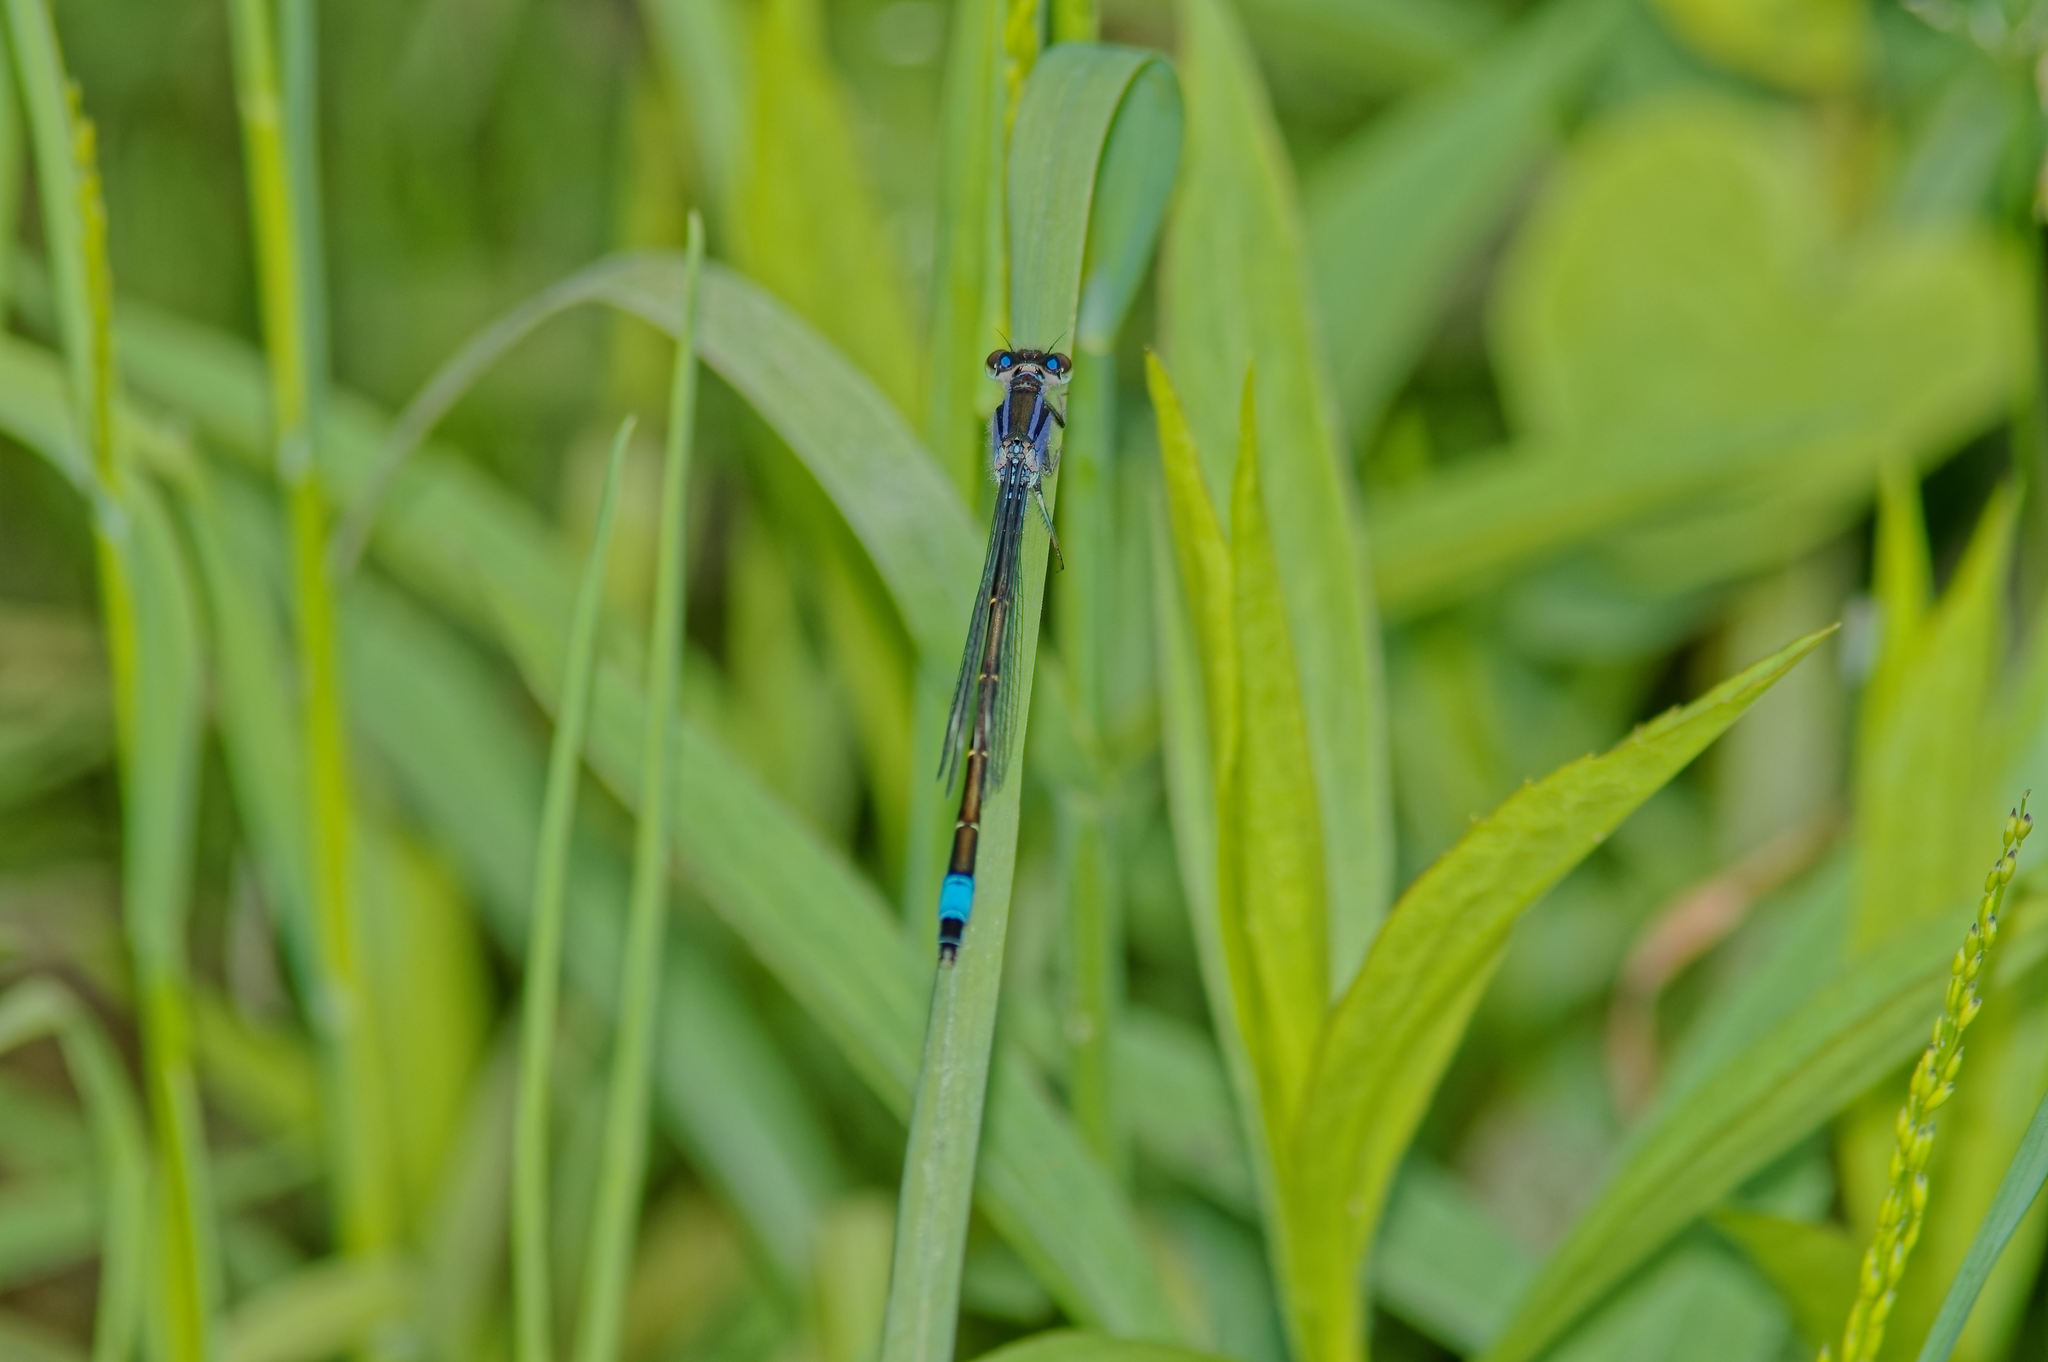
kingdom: Animalia
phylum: Arthropoda
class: Insecta
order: Odonata
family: Coenagrionidae
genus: Ischnura
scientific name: Ischnura elegans
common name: Blue-tailed damselfly
